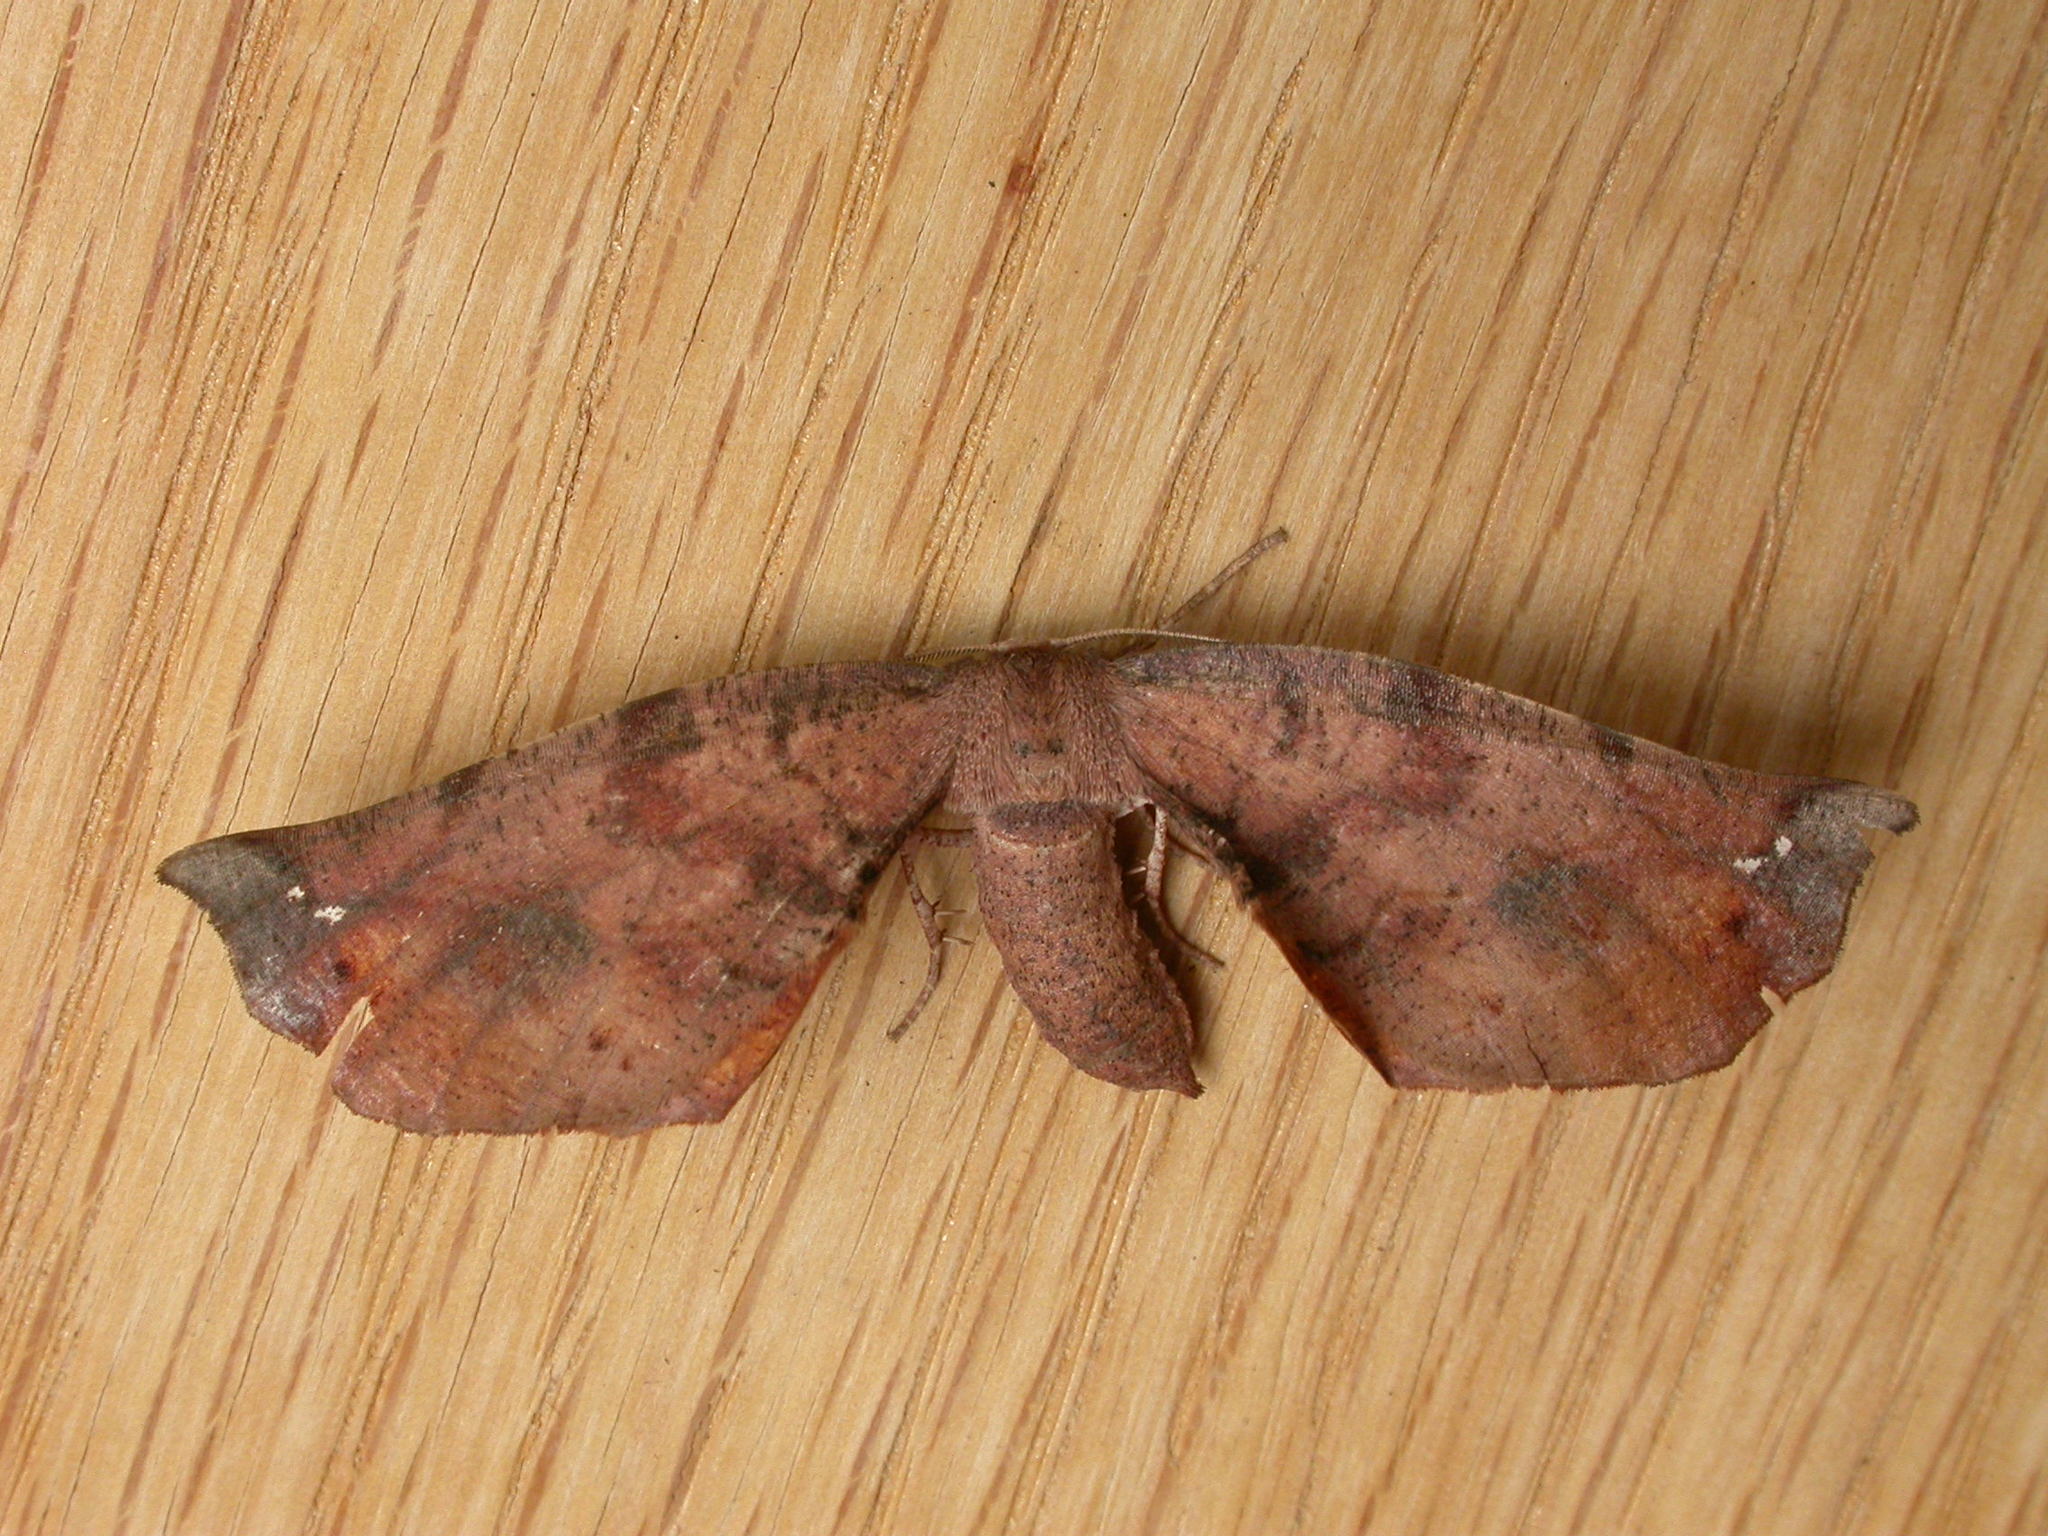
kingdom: Animalia
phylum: Arthropoda
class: Insecta
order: Lepidoptera
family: Geometridae
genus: Parepisparis
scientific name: Parepisparis virgatus
